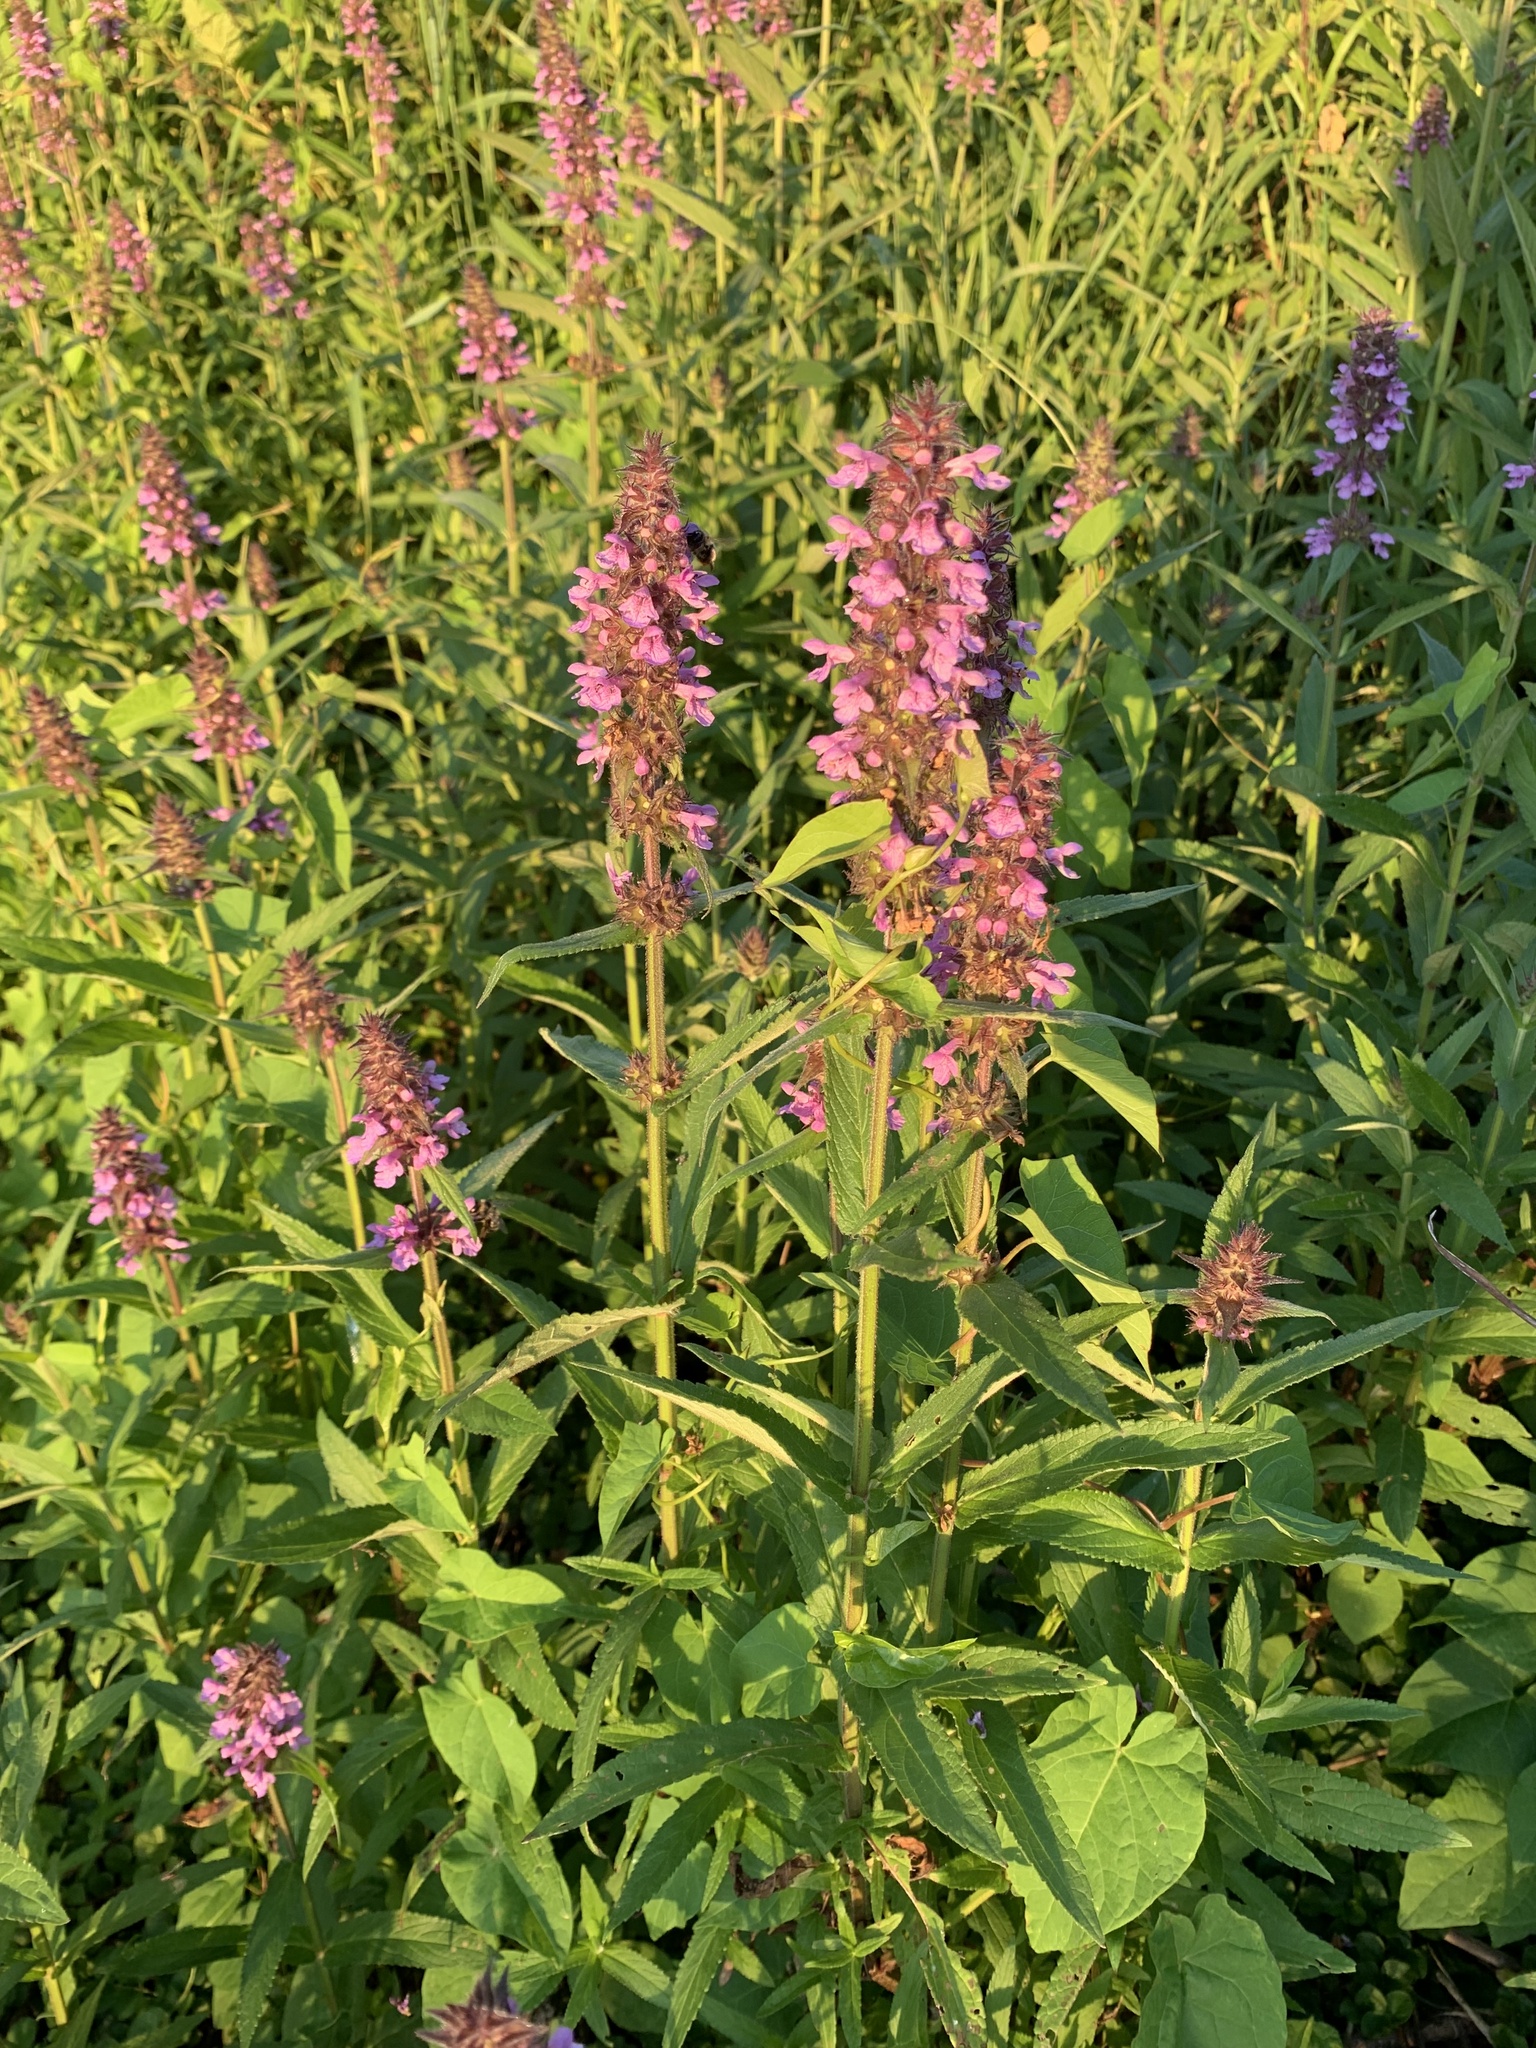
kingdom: Plantae
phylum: Tracheophyta
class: Magnoliopsida
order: Lamiales
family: Lamiaceae
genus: Stachys
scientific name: Stachys palustris
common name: Marsh woundwort
